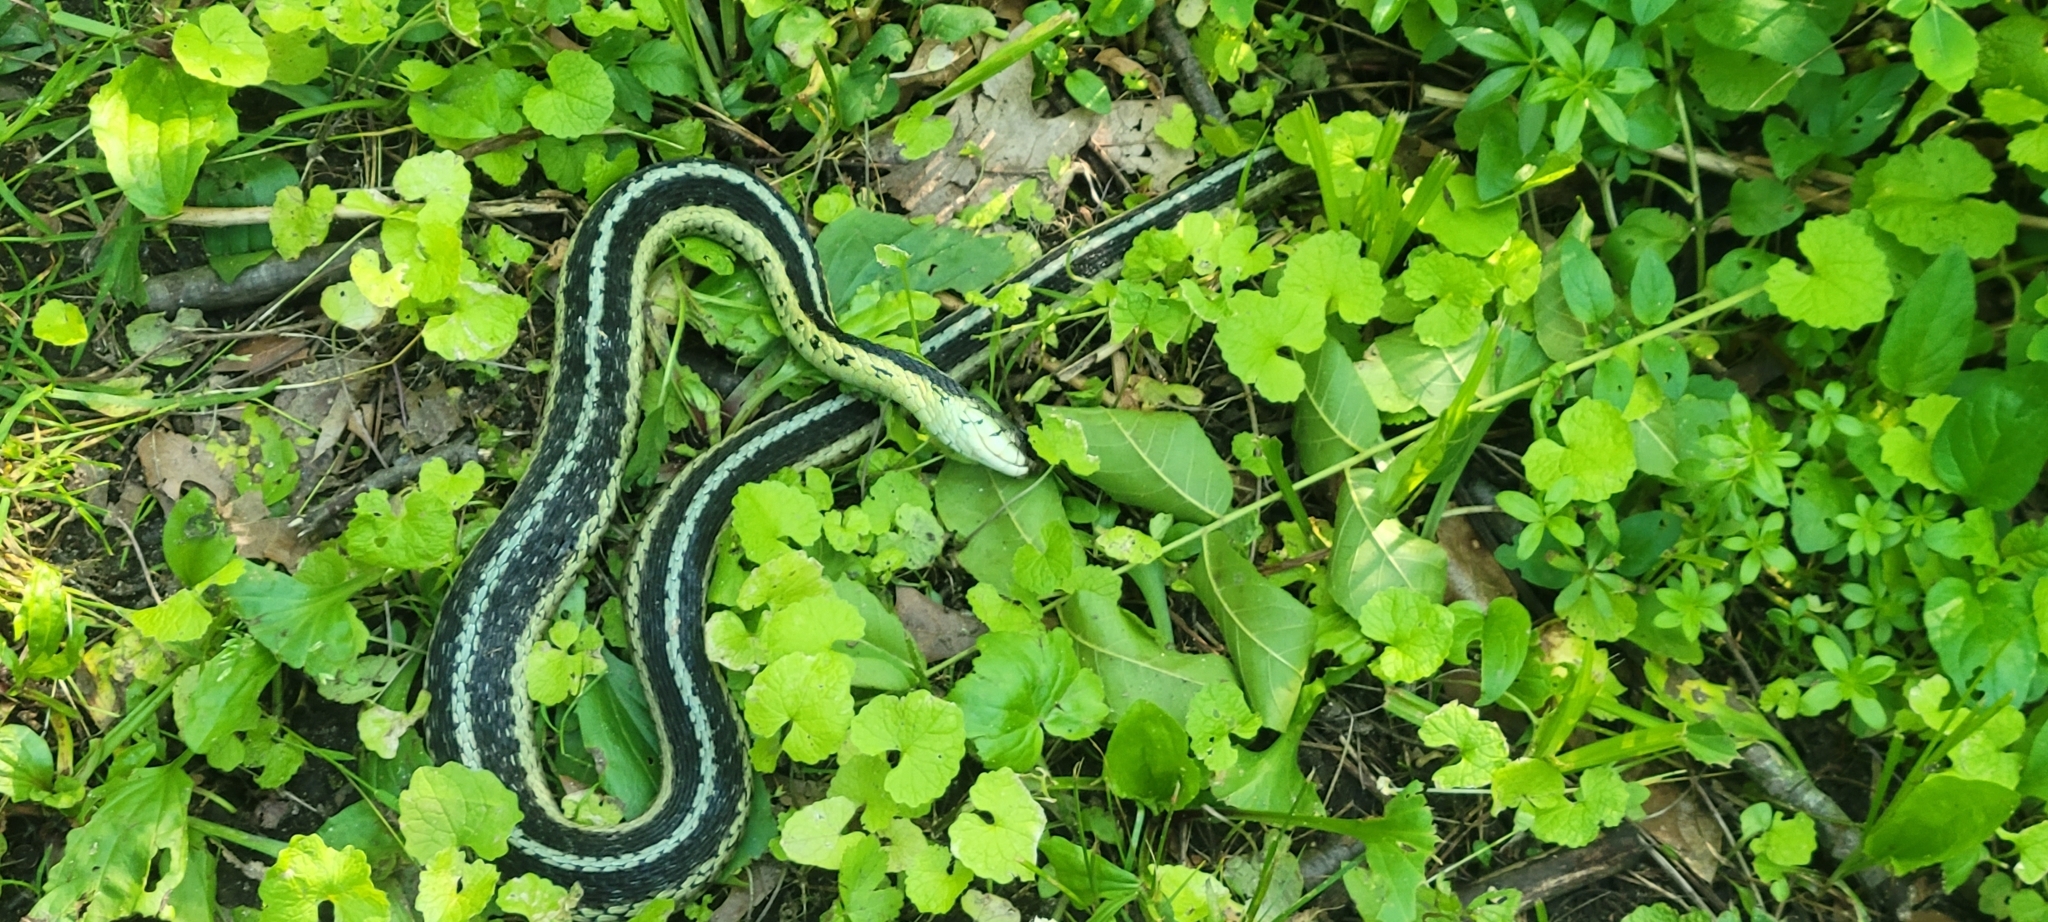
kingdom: Animalia
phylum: Chordata
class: Squamata
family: Colubridae
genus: Thamnophis
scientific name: Thamnophis sirtalis
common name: Common garter snake
